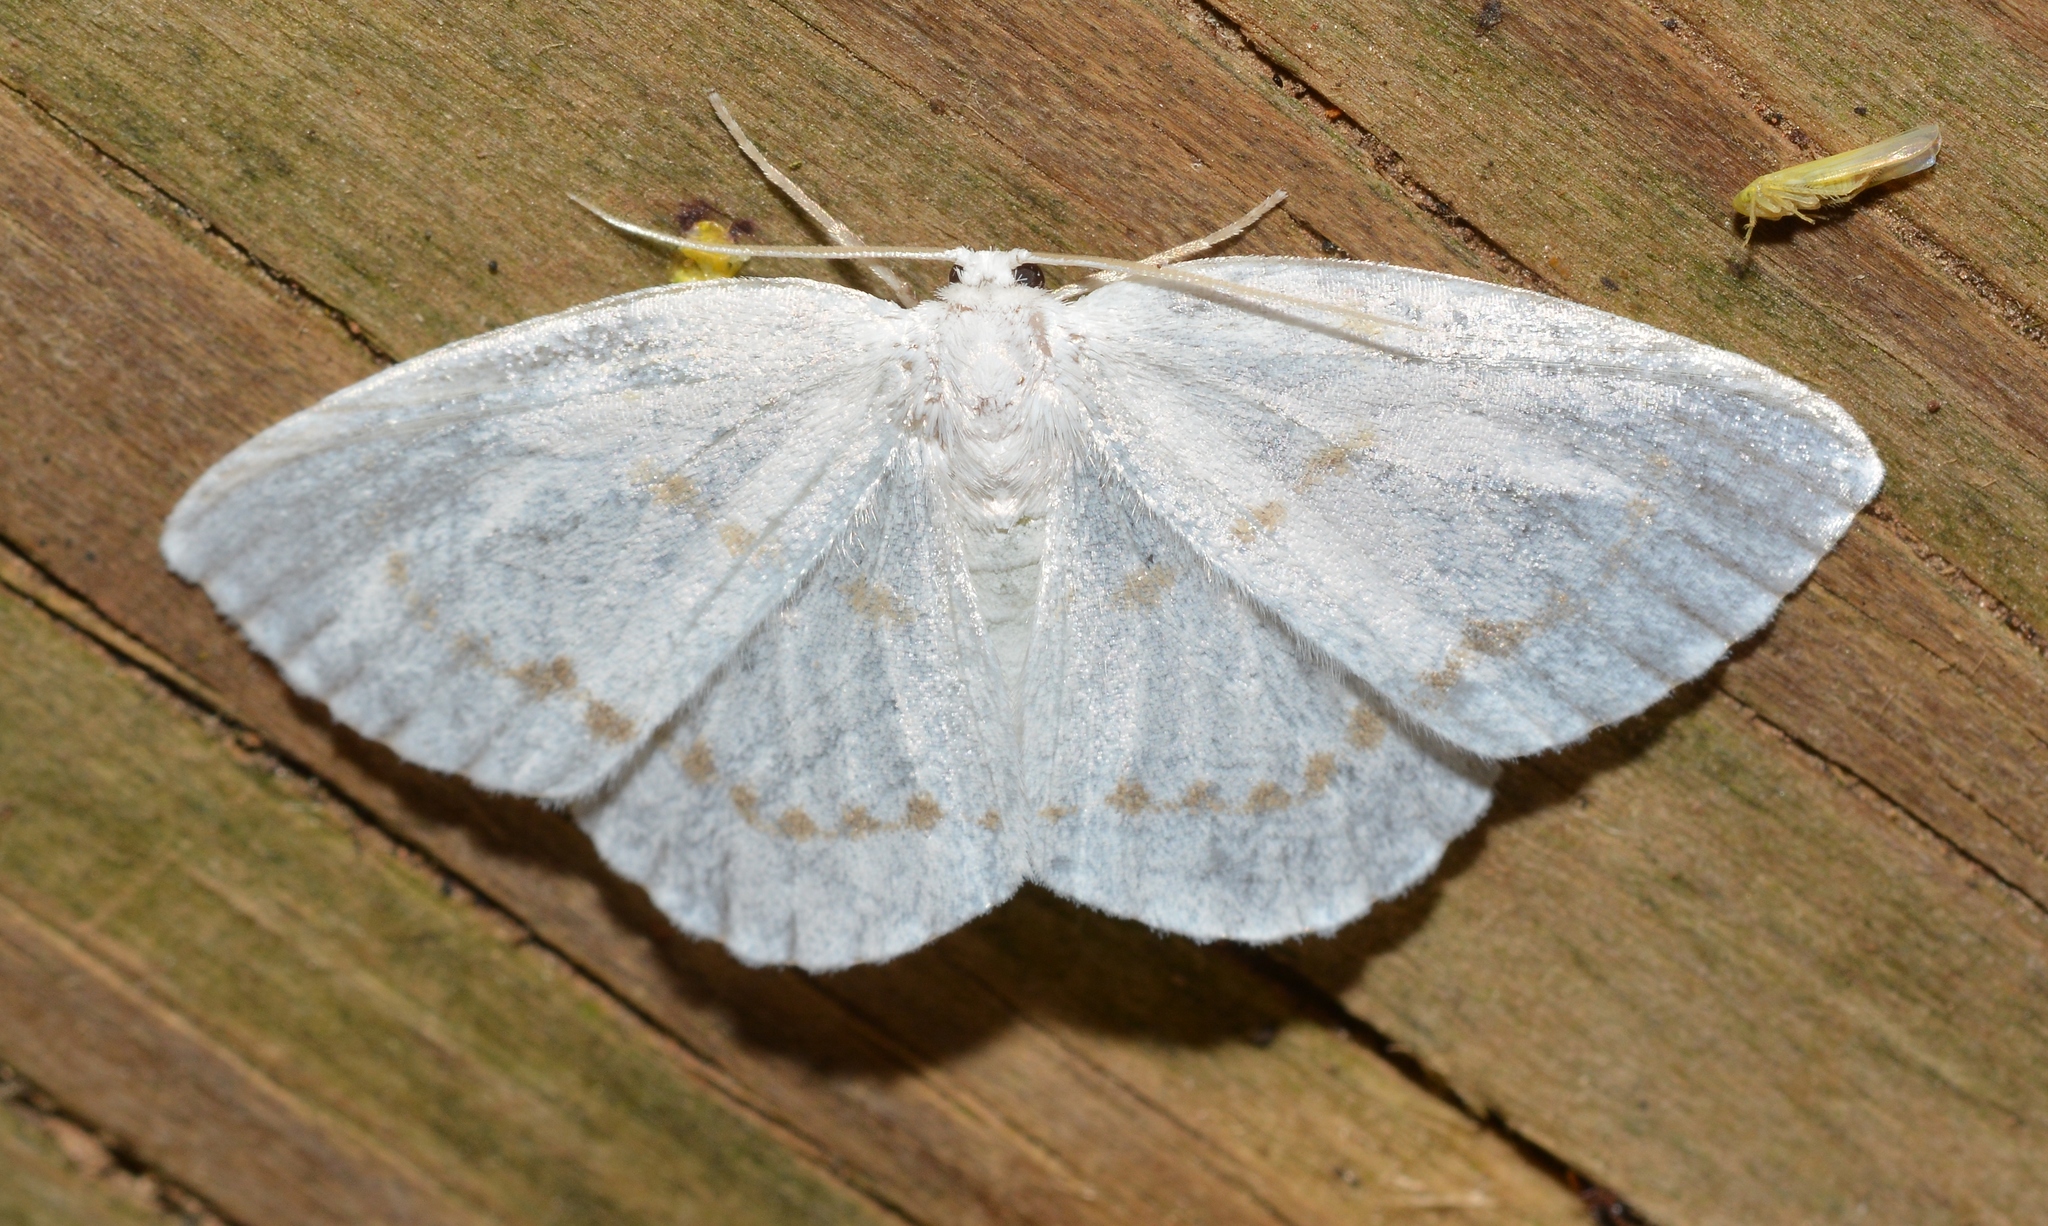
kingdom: Animalia
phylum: Arthropoda
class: Insecta
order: Lepidoptera
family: Drepanidae
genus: Eudeilinia
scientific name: Eudeilinia herminiata
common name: Northern eudeilinea moth
